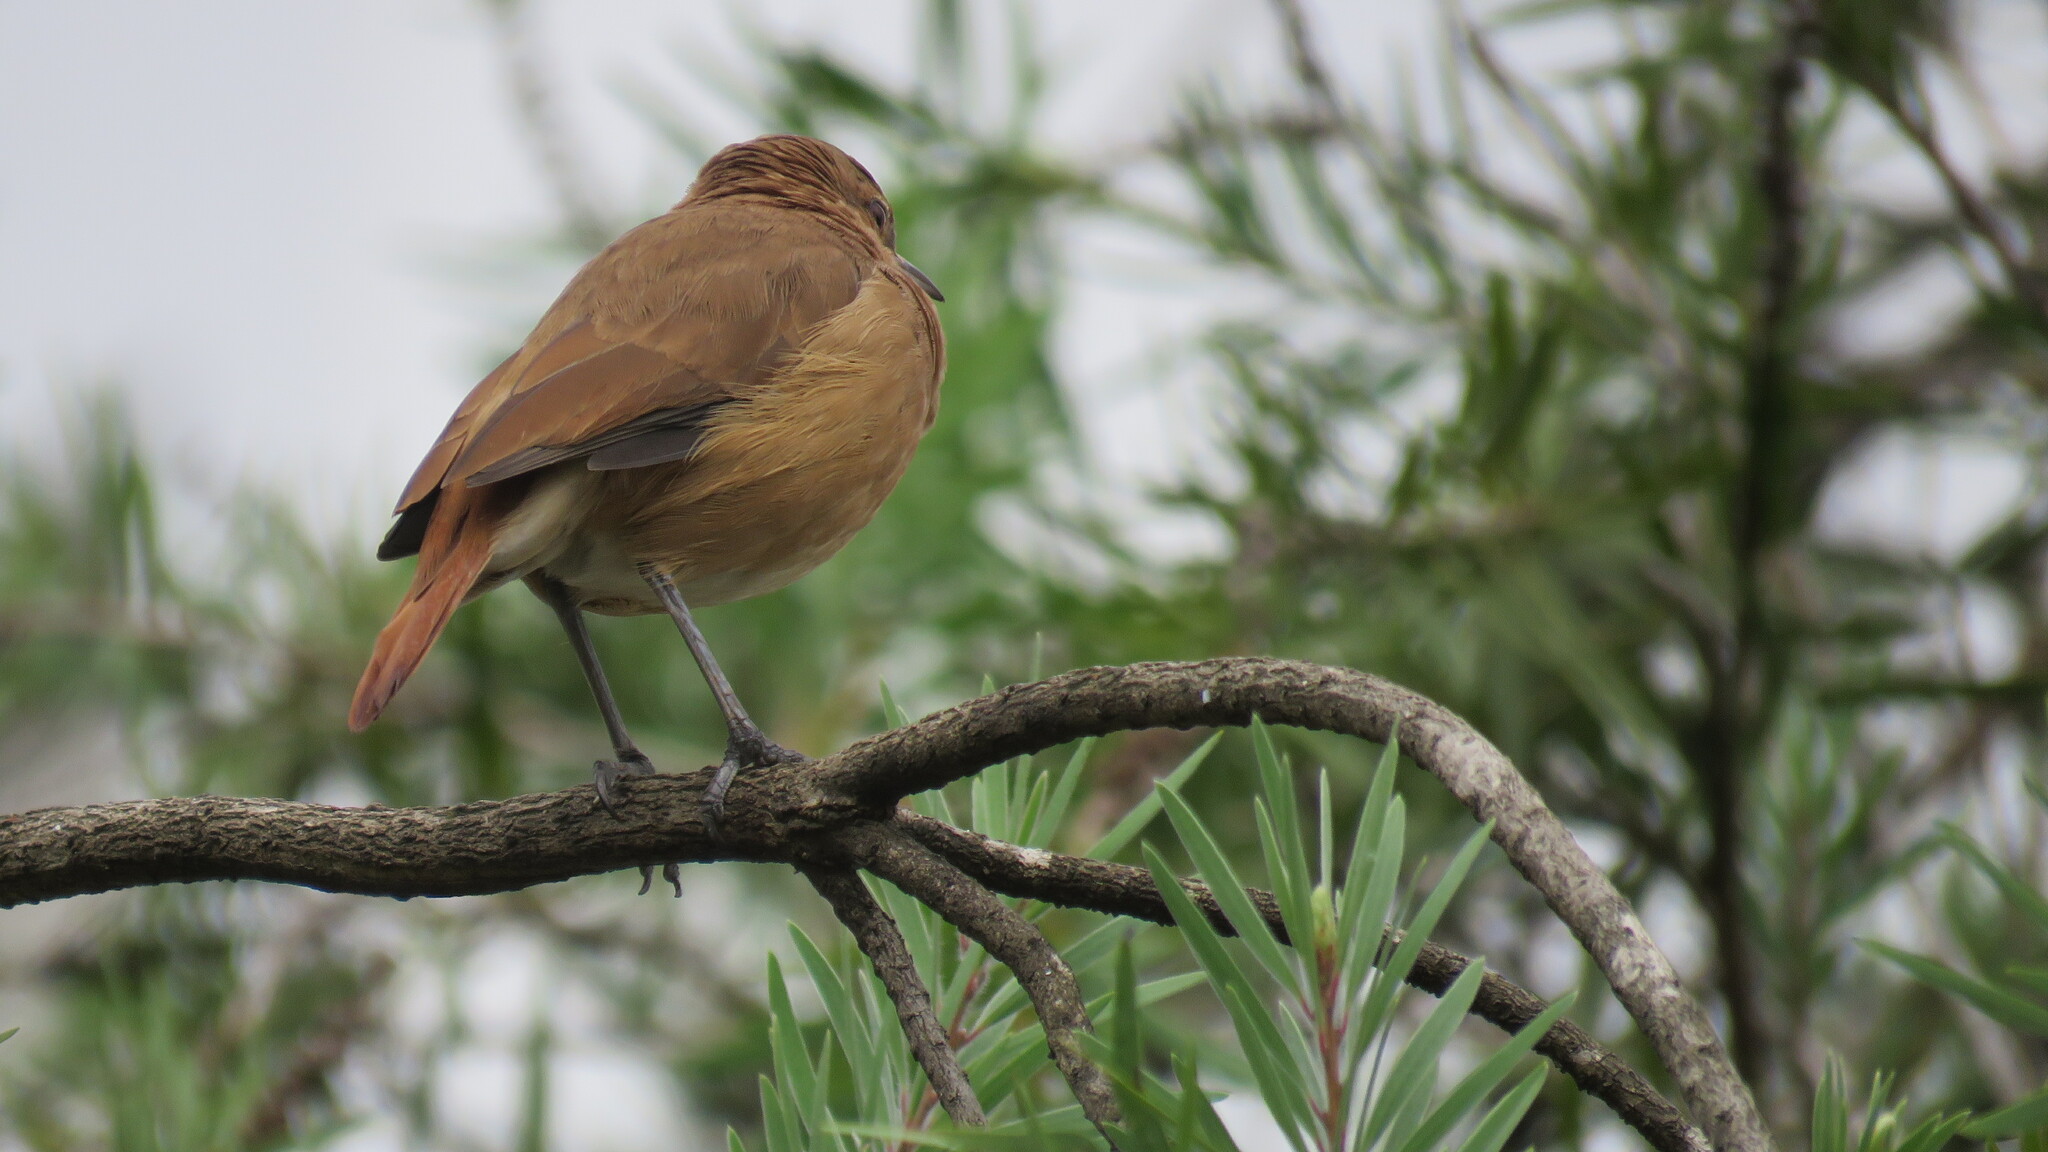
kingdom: Animalia
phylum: Chordata
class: Aves
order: Passeriformes
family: Furnariidae
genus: Furnarius
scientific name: Furnarius rufus
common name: Rufous hornero
